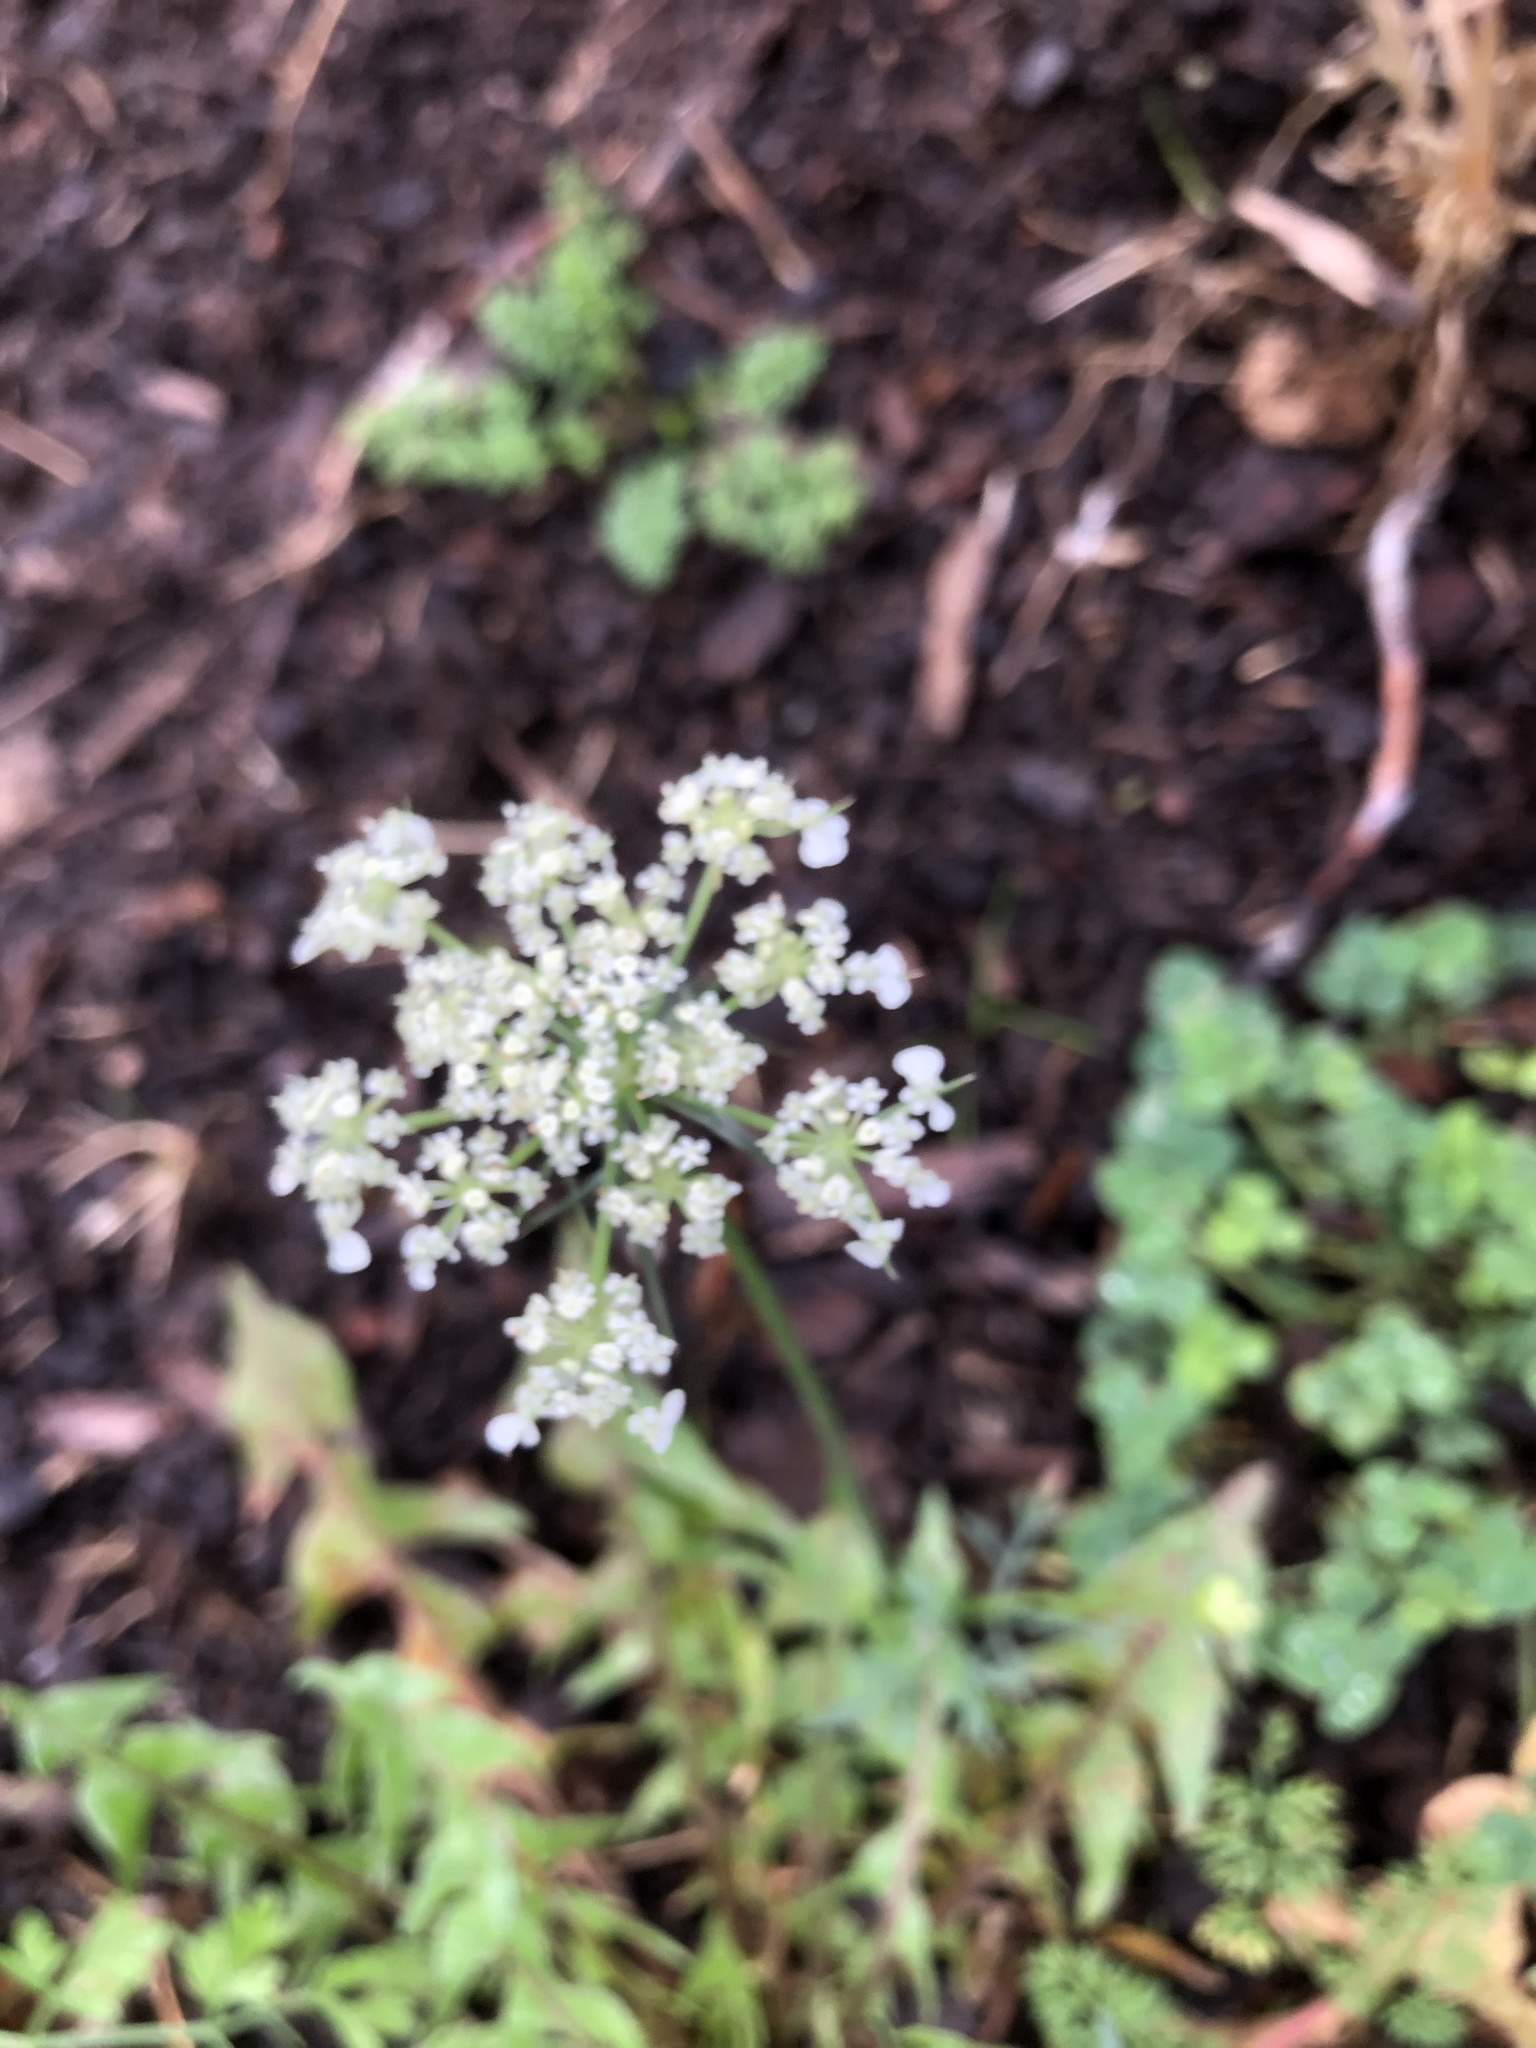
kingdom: Plantae
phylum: Tracheophyta
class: Magnoliopsida
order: Apiales
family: Apiaceae
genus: Daucus
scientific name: Daucus carota
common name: Wild carrot
